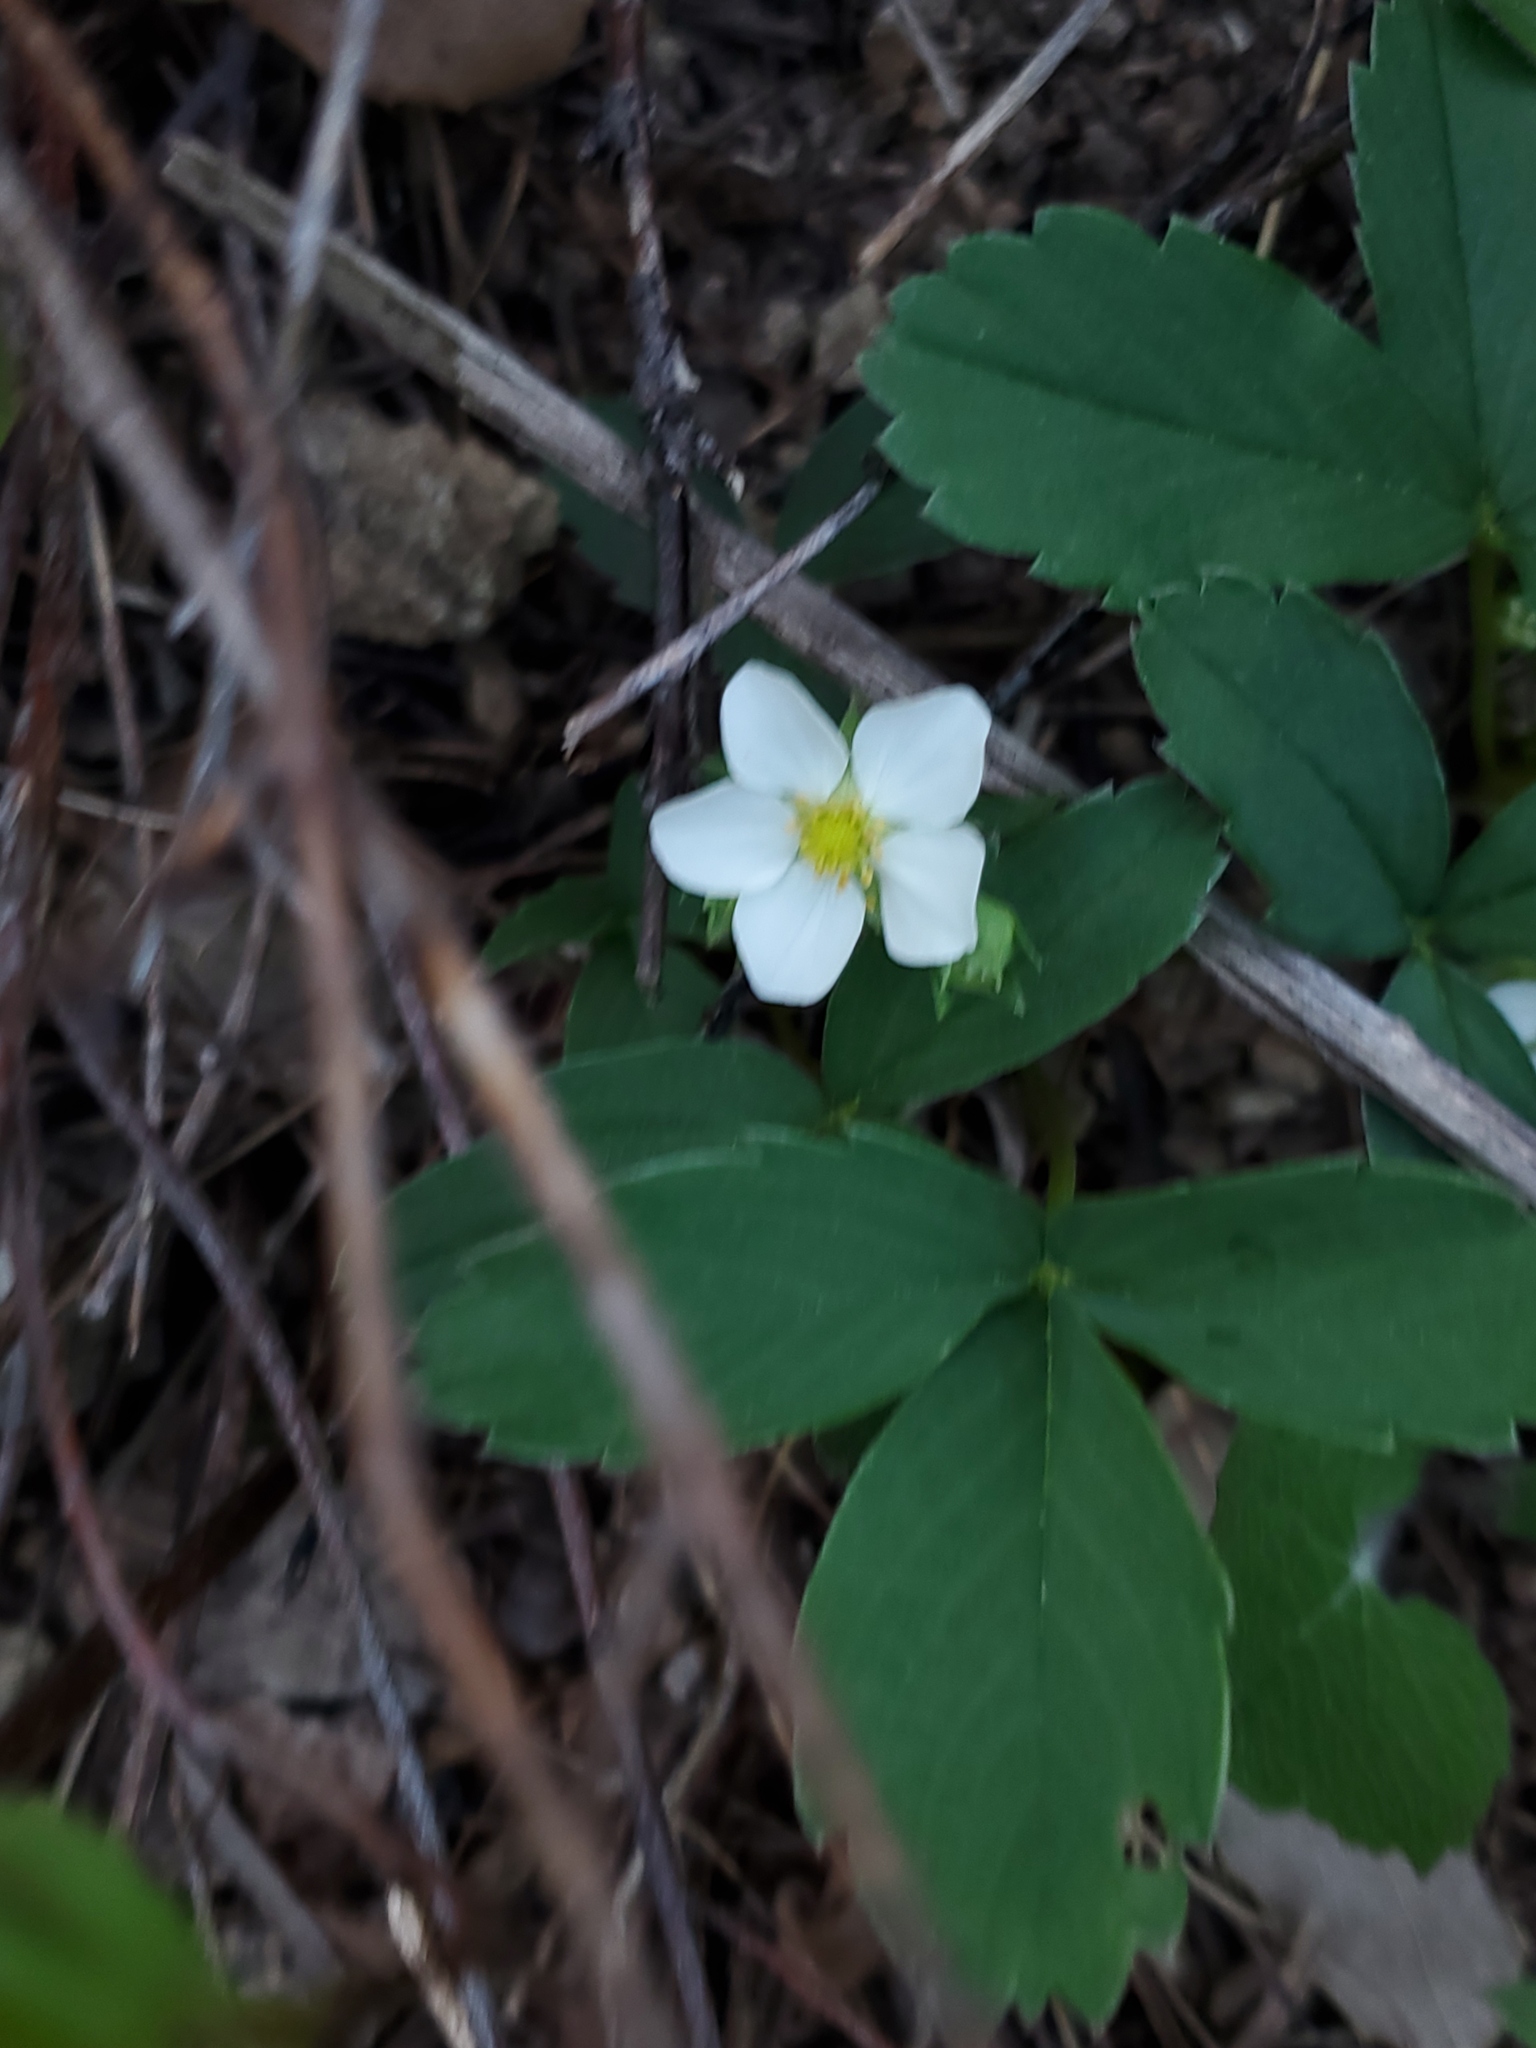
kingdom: Plantae
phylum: Tracheophyta
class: Magnoliopsida
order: Rosales
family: Rosaceae
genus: Fragaria
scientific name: Fragaria virginiana
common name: Thickleaved wild strawberry
